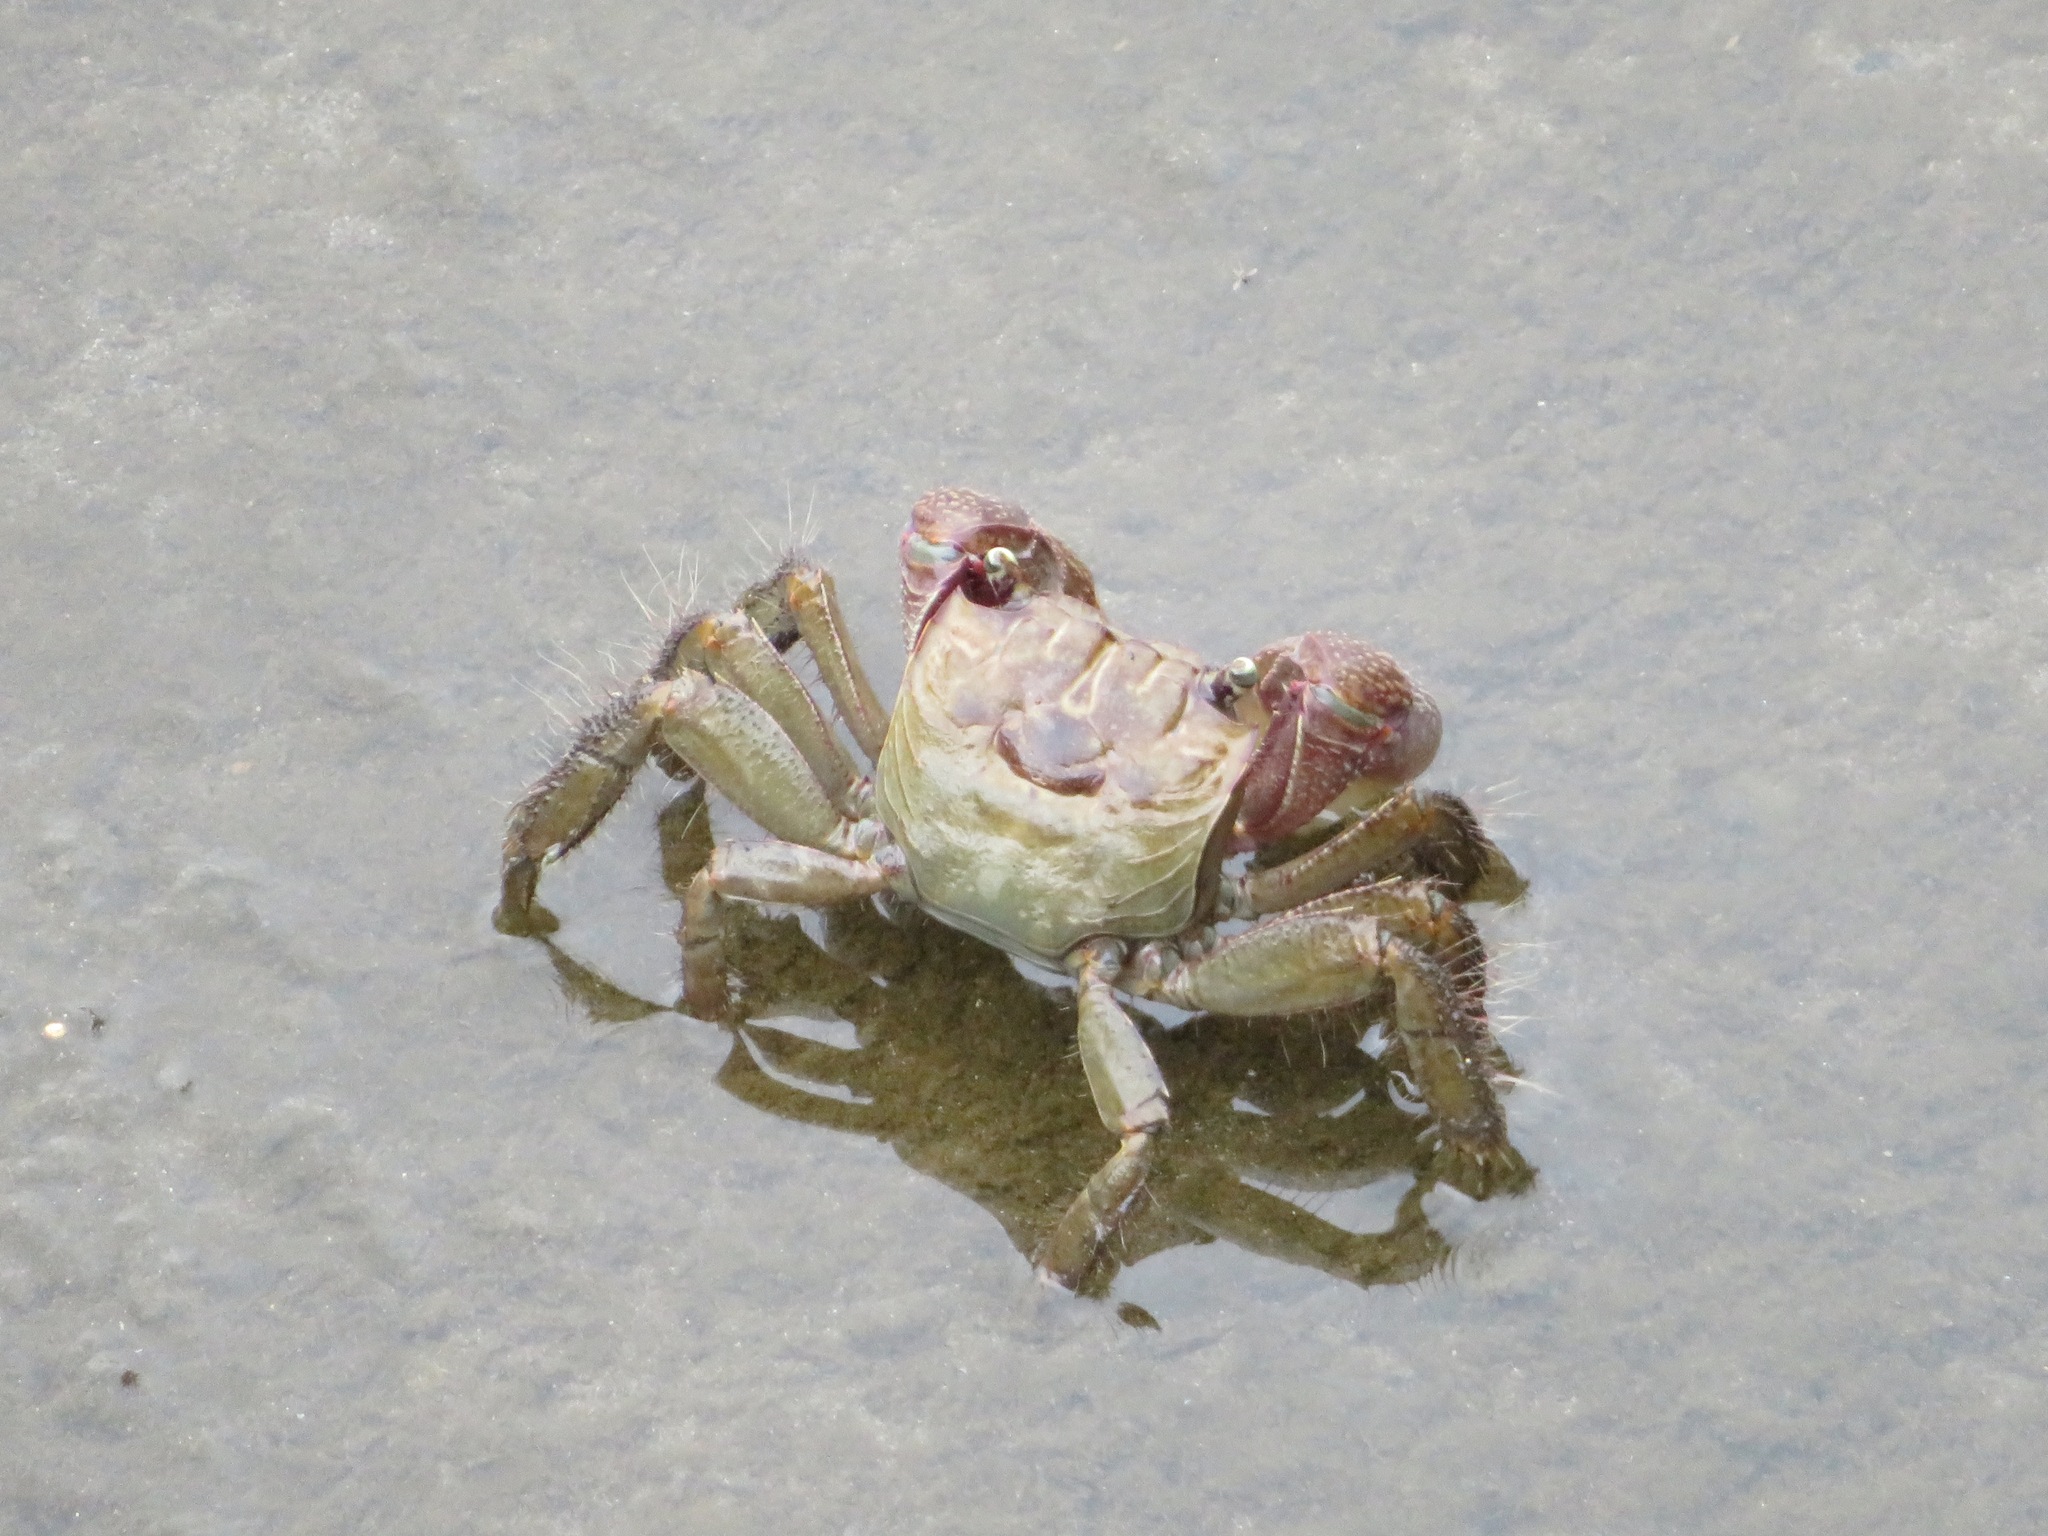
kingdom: Animalia
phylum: Arthropoda
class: Malacostraca
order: Decapoda
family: Sesarmidae
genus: Orisarma
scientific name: Orisarma dehaani
